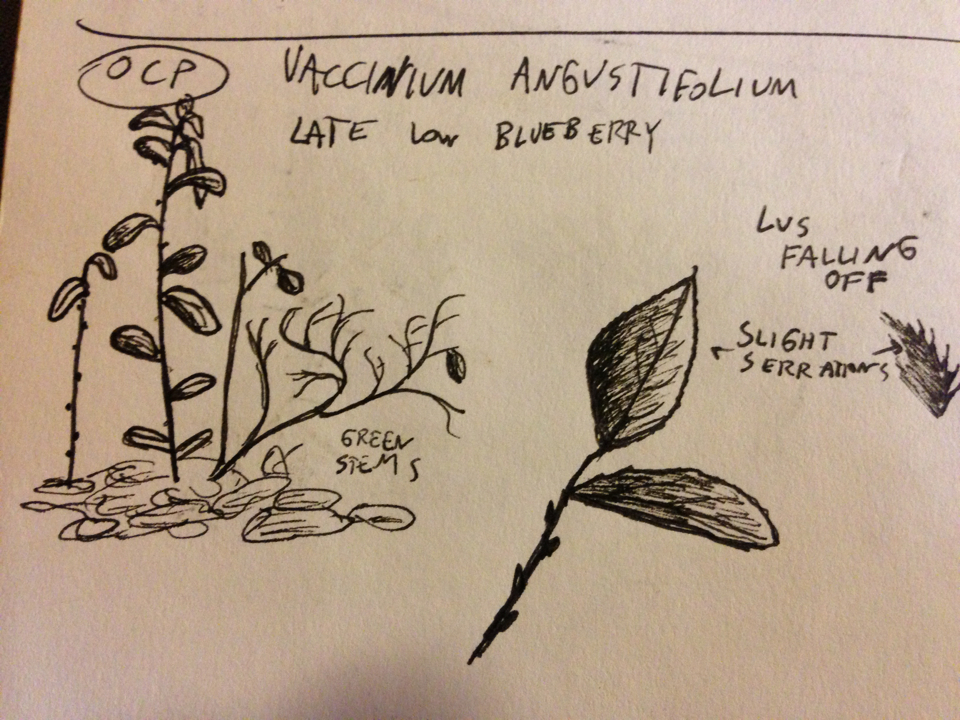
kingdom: Plantae
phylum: Tracheophyta
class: Magnoliopsida
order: Ericales
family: Ericaceae
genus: Vaccinium
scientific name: Vaccinium angustifolium
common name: Early lowbush blueberry
